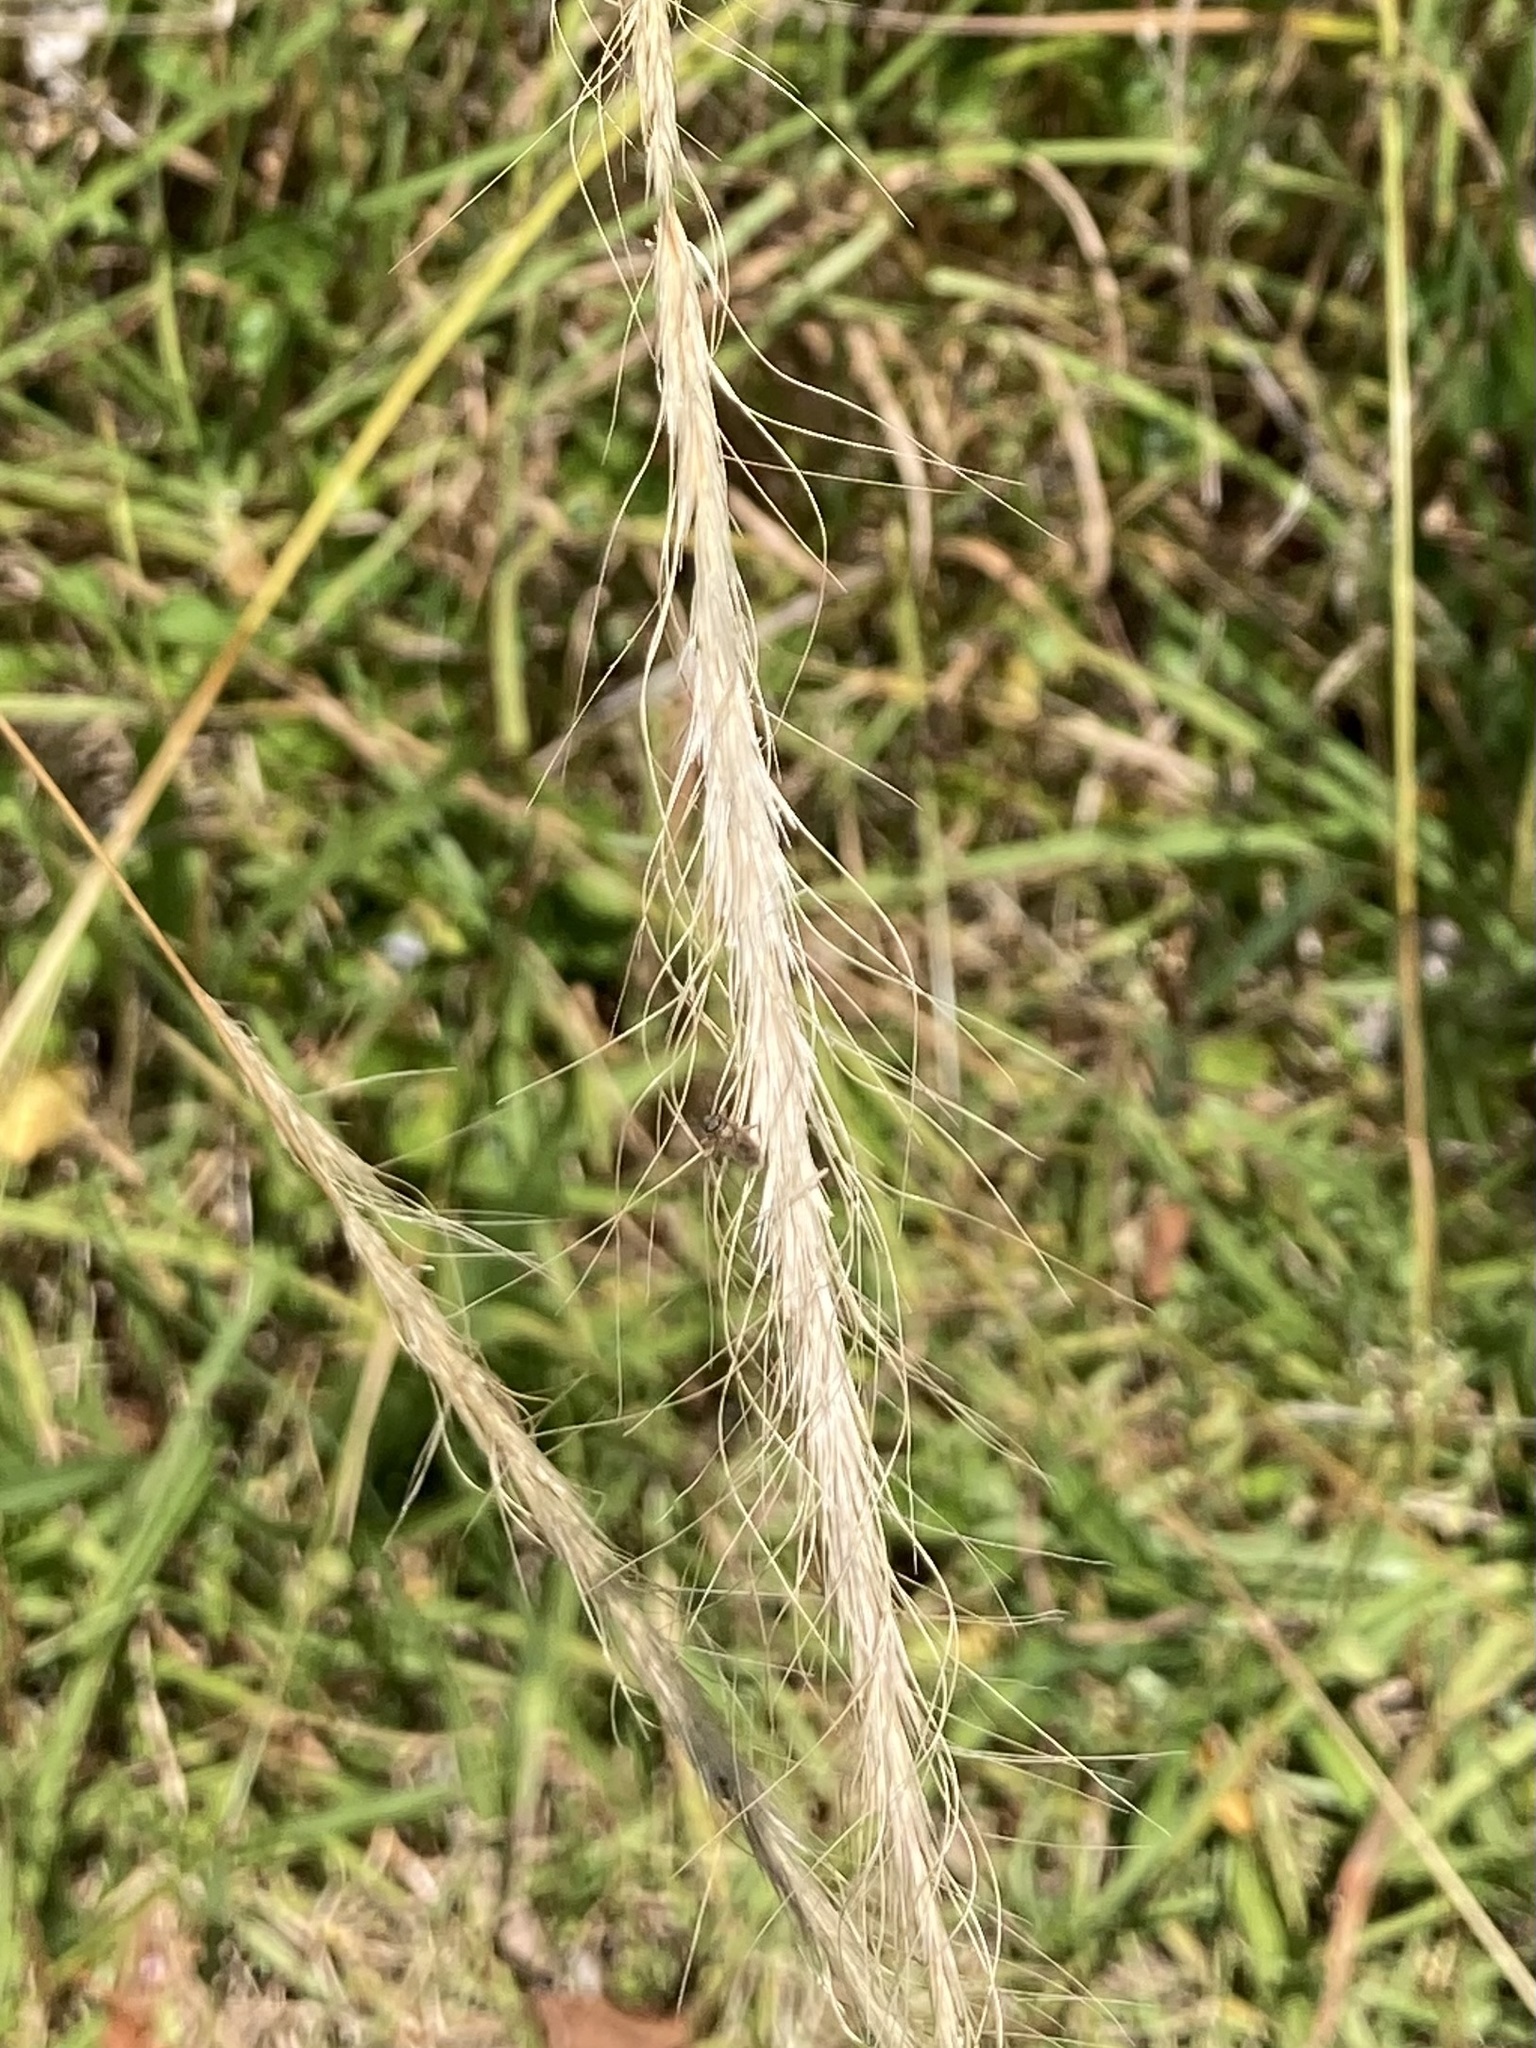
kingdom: Plantae
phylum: Tracheophyta
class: Liliopsida
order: Poales
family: Poaceae
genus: Dichelachne
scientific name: Dichelachne crinita
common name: Clovenfoot plumegrass
